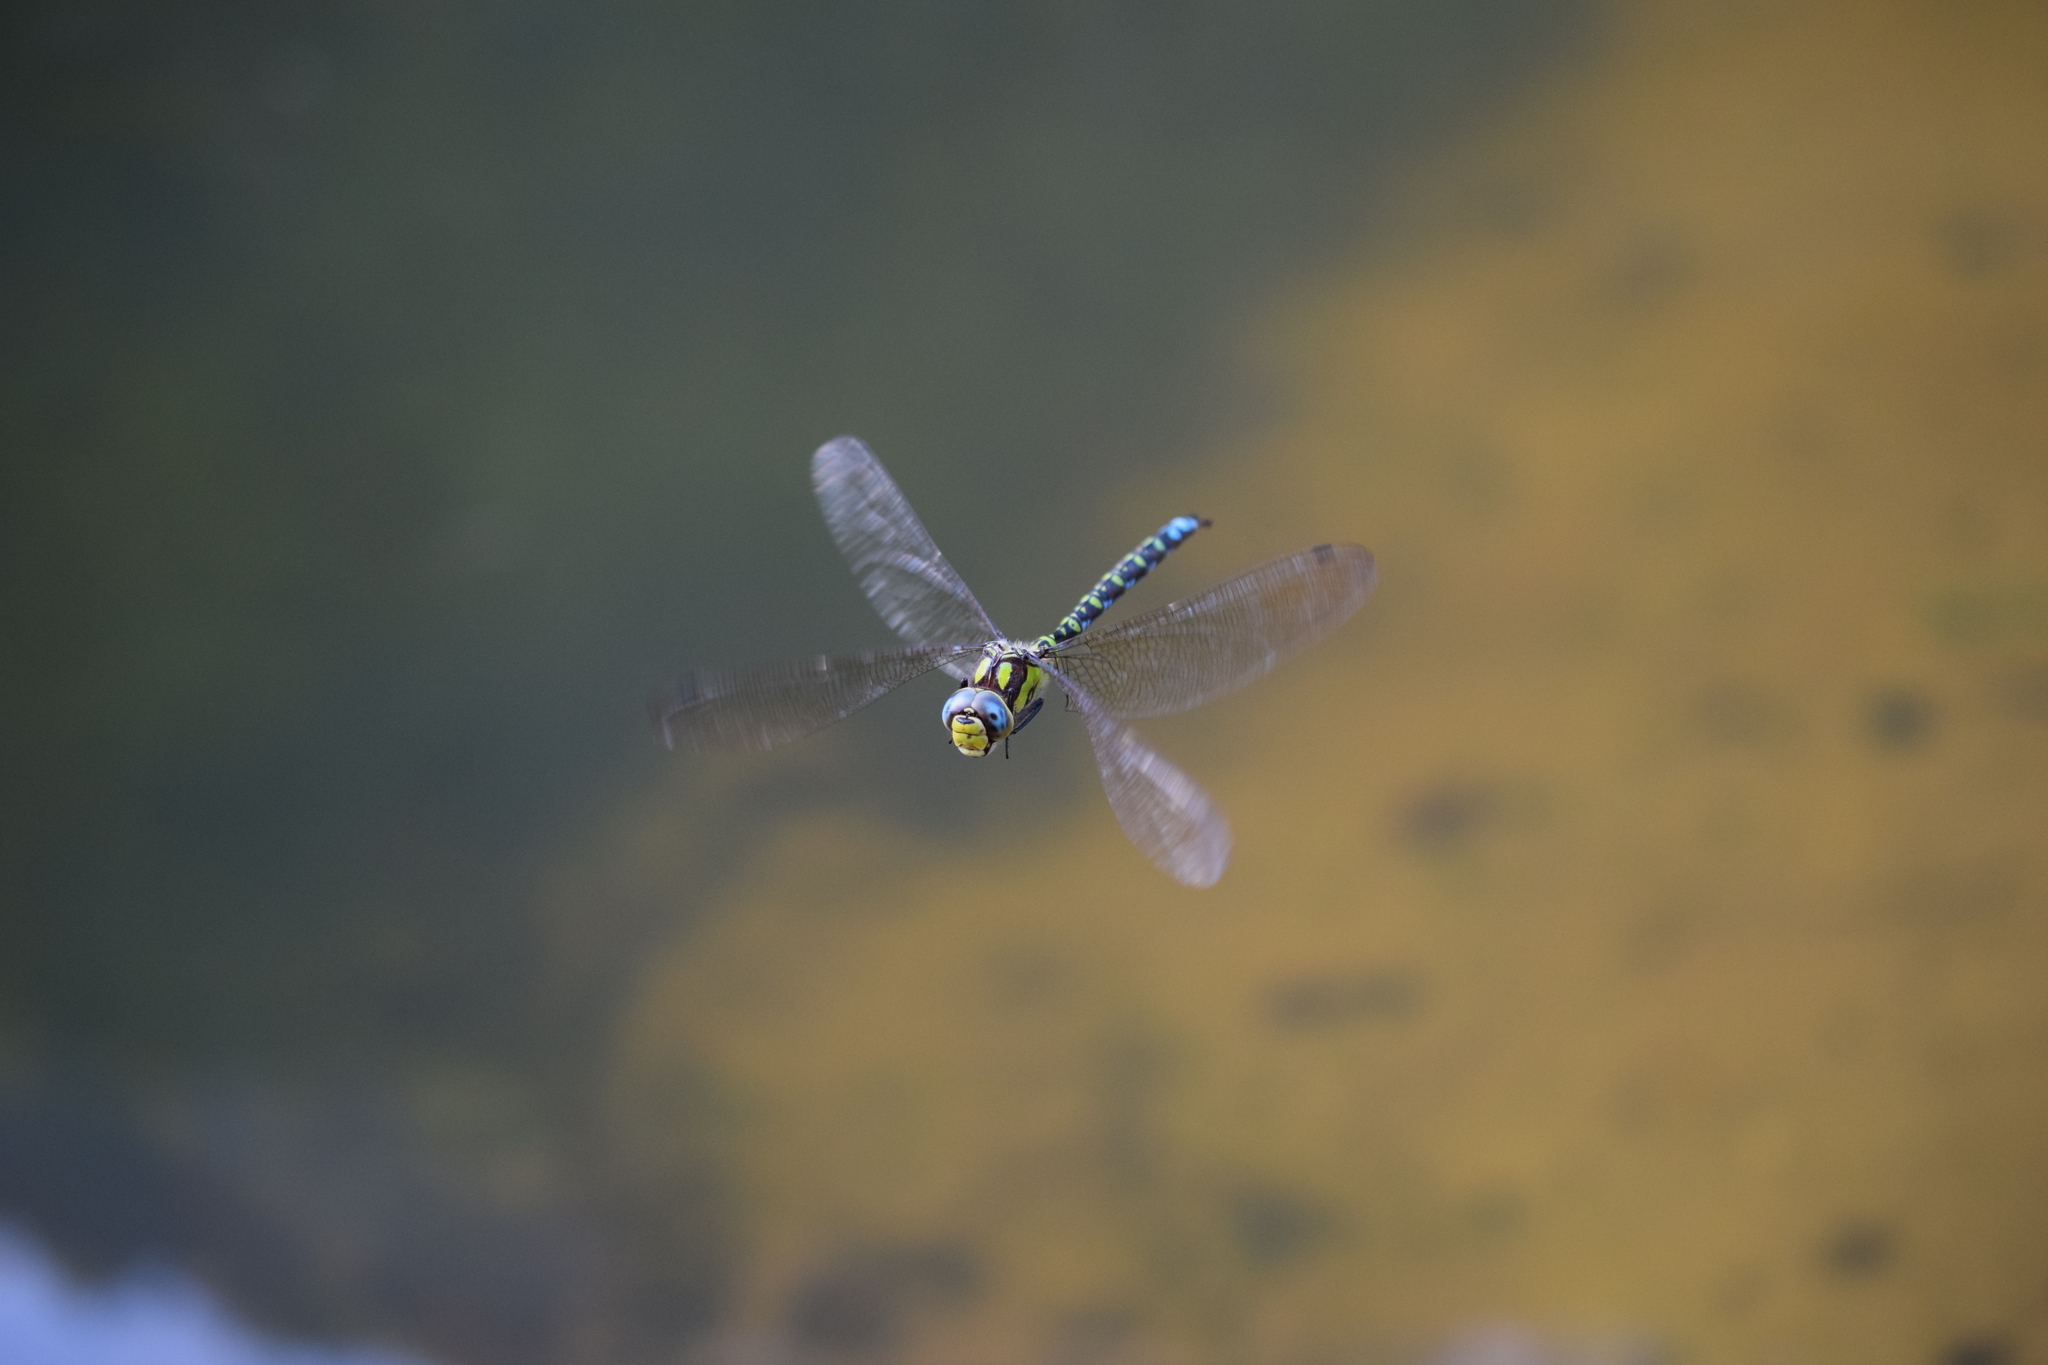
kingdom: Animalia
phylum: Arthropoda
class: Insecta
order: Odonata
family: Aeshnidae
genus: Aeshna
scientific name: Aeshna cyanea
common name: Southern hawker
